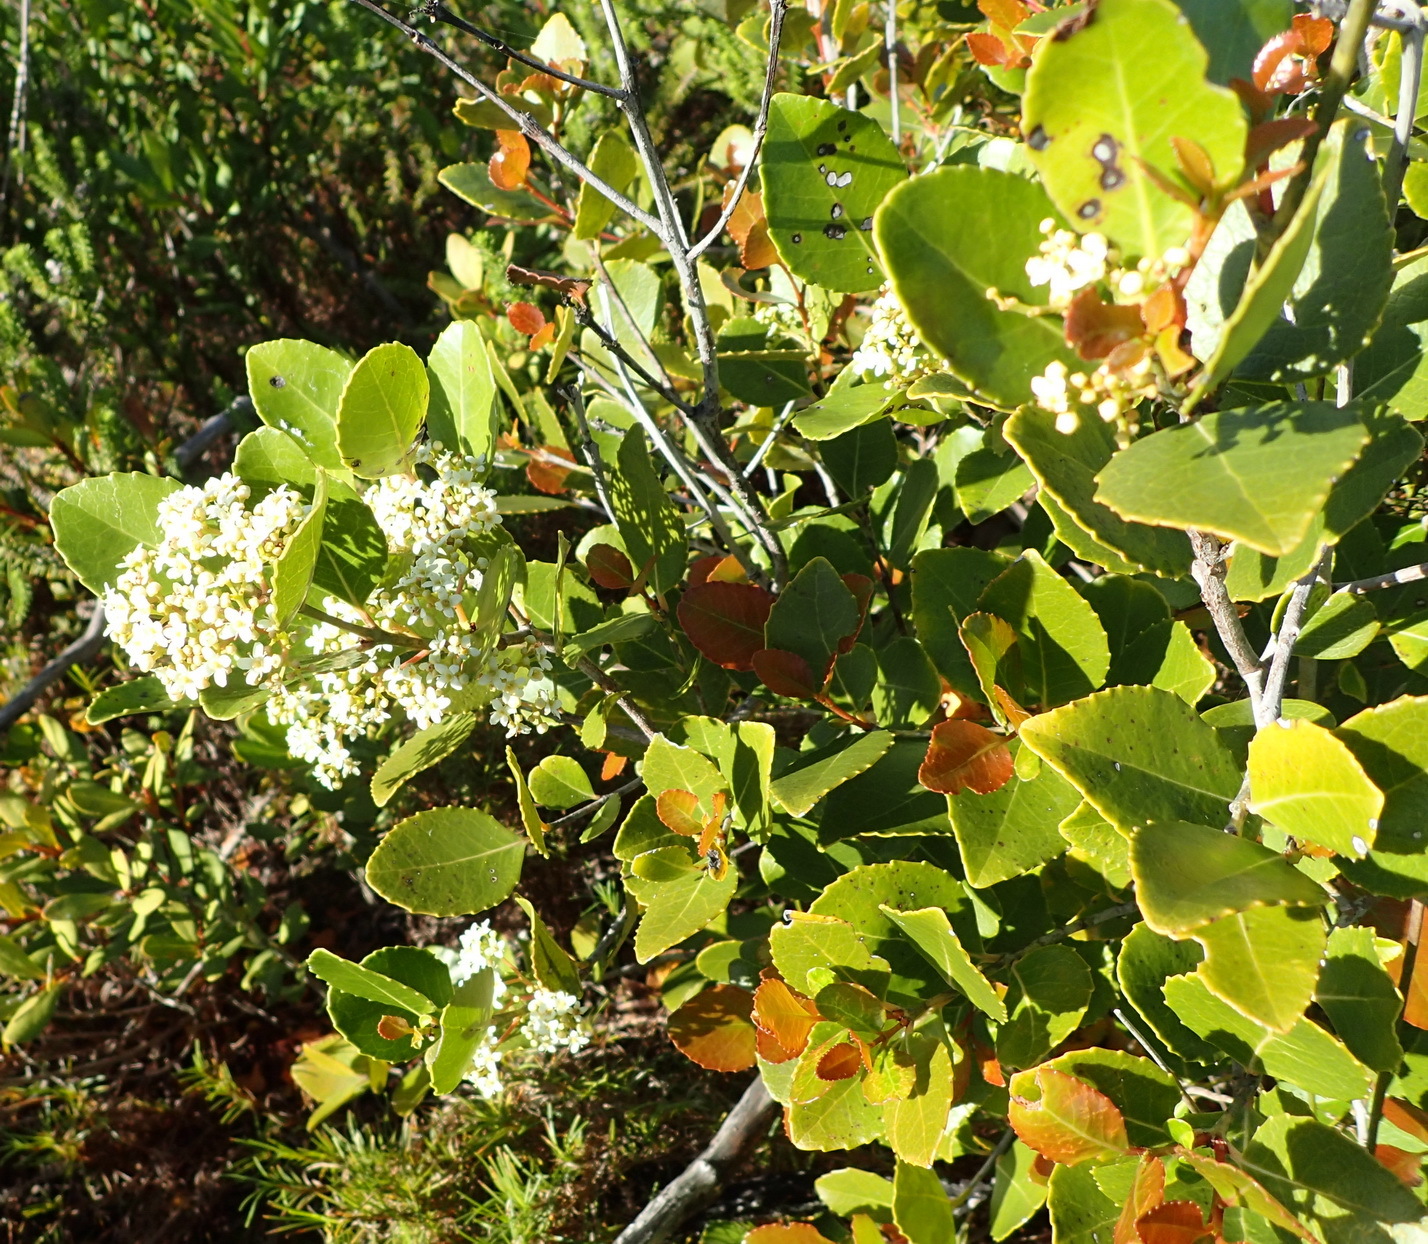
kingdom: Plantae
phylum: Tracheophyta
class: Magnoliopsida
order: Celastrales
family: Celastraceae
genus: Cassine
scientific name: Cassine peragua
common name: Cape saffron
